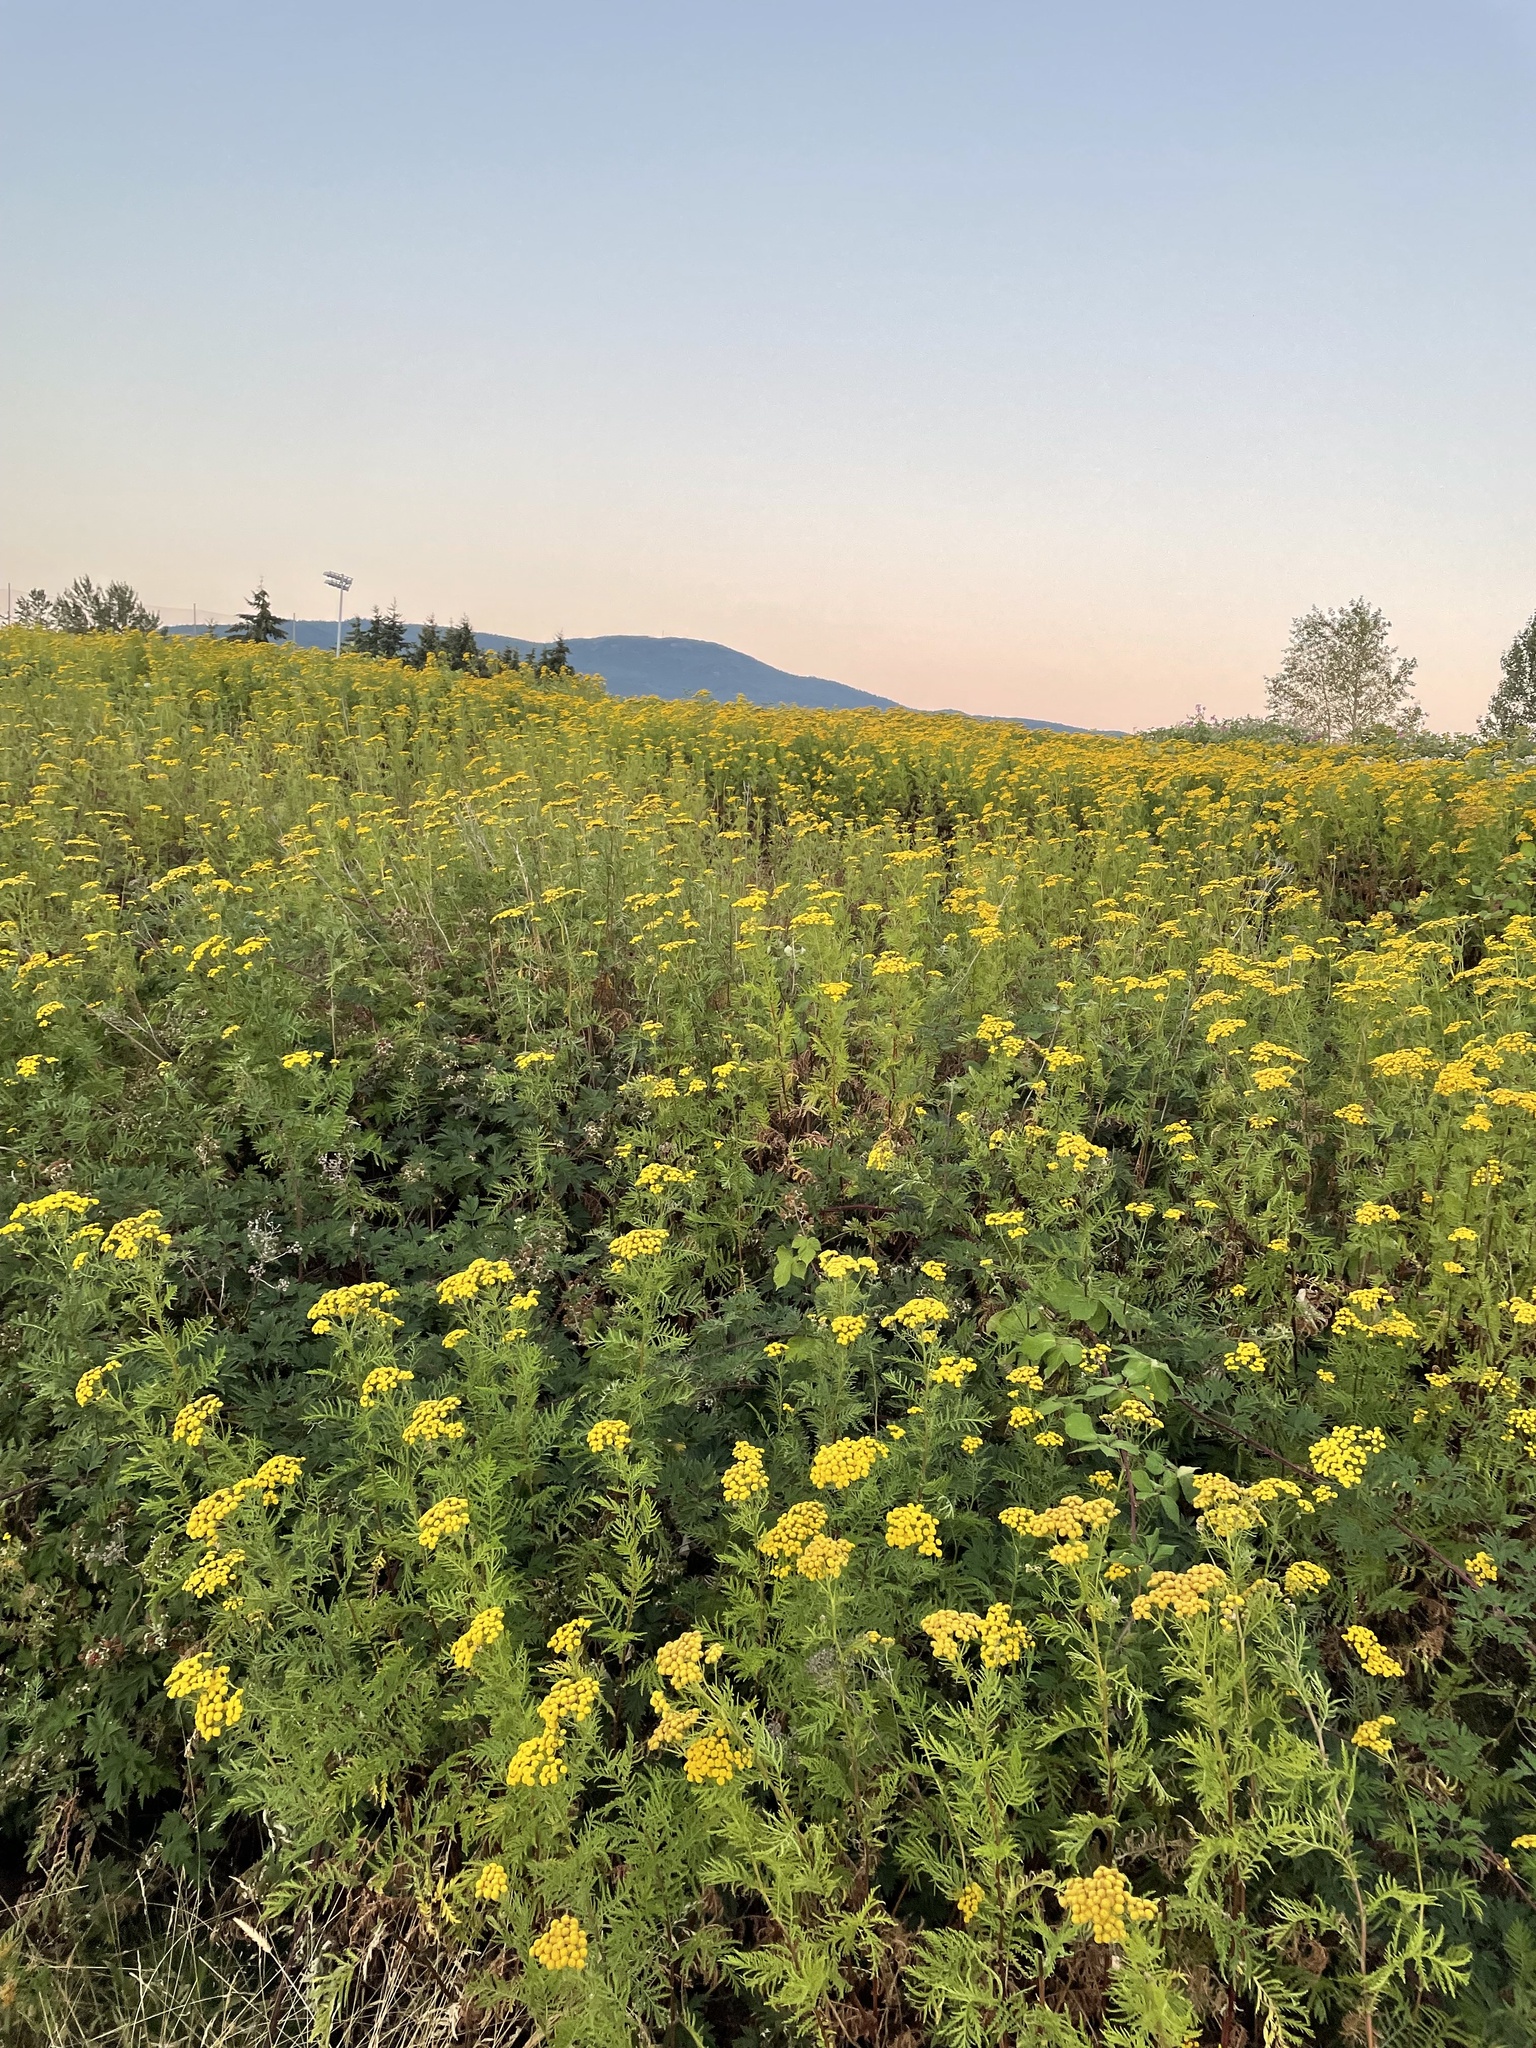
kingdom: Plantae
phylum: Tracheophyta
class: Magnoliopsida
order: Asterales
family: Asteraceae
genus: Tanacetum
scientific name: Tanacetum vulgare
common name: Common tansy
